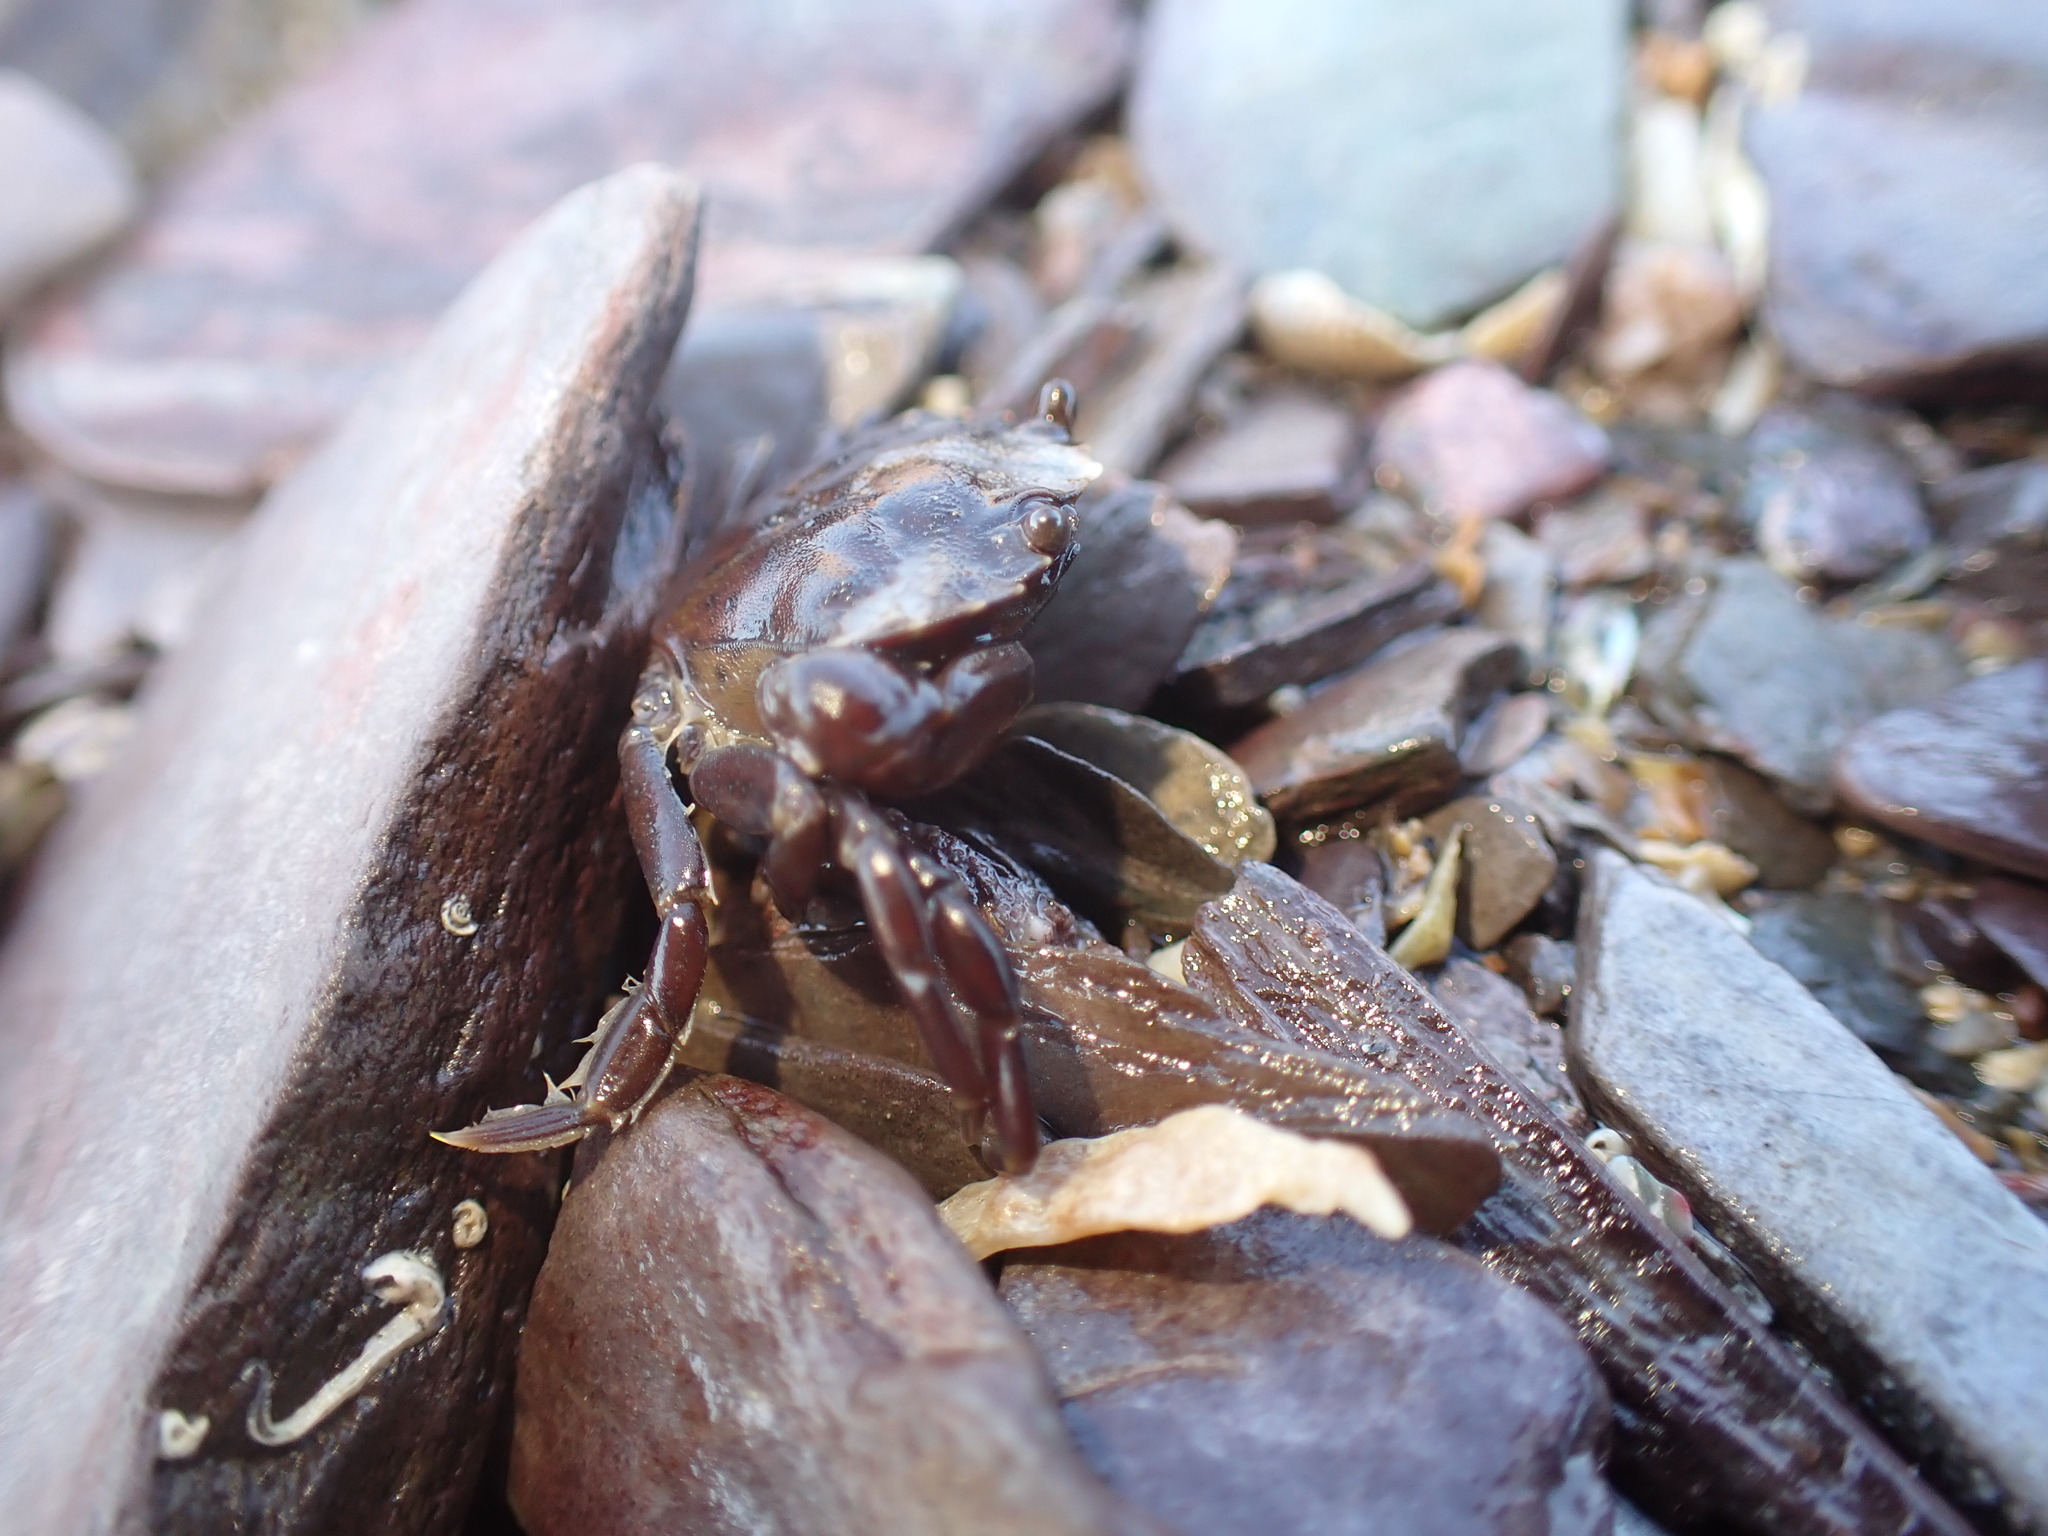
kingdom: Animalia
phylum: Arthropoda
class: Malacostraca
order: Decapoda
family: Carcinidae
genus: Carcinus
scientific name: Carcinus maenas
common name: European green crab
